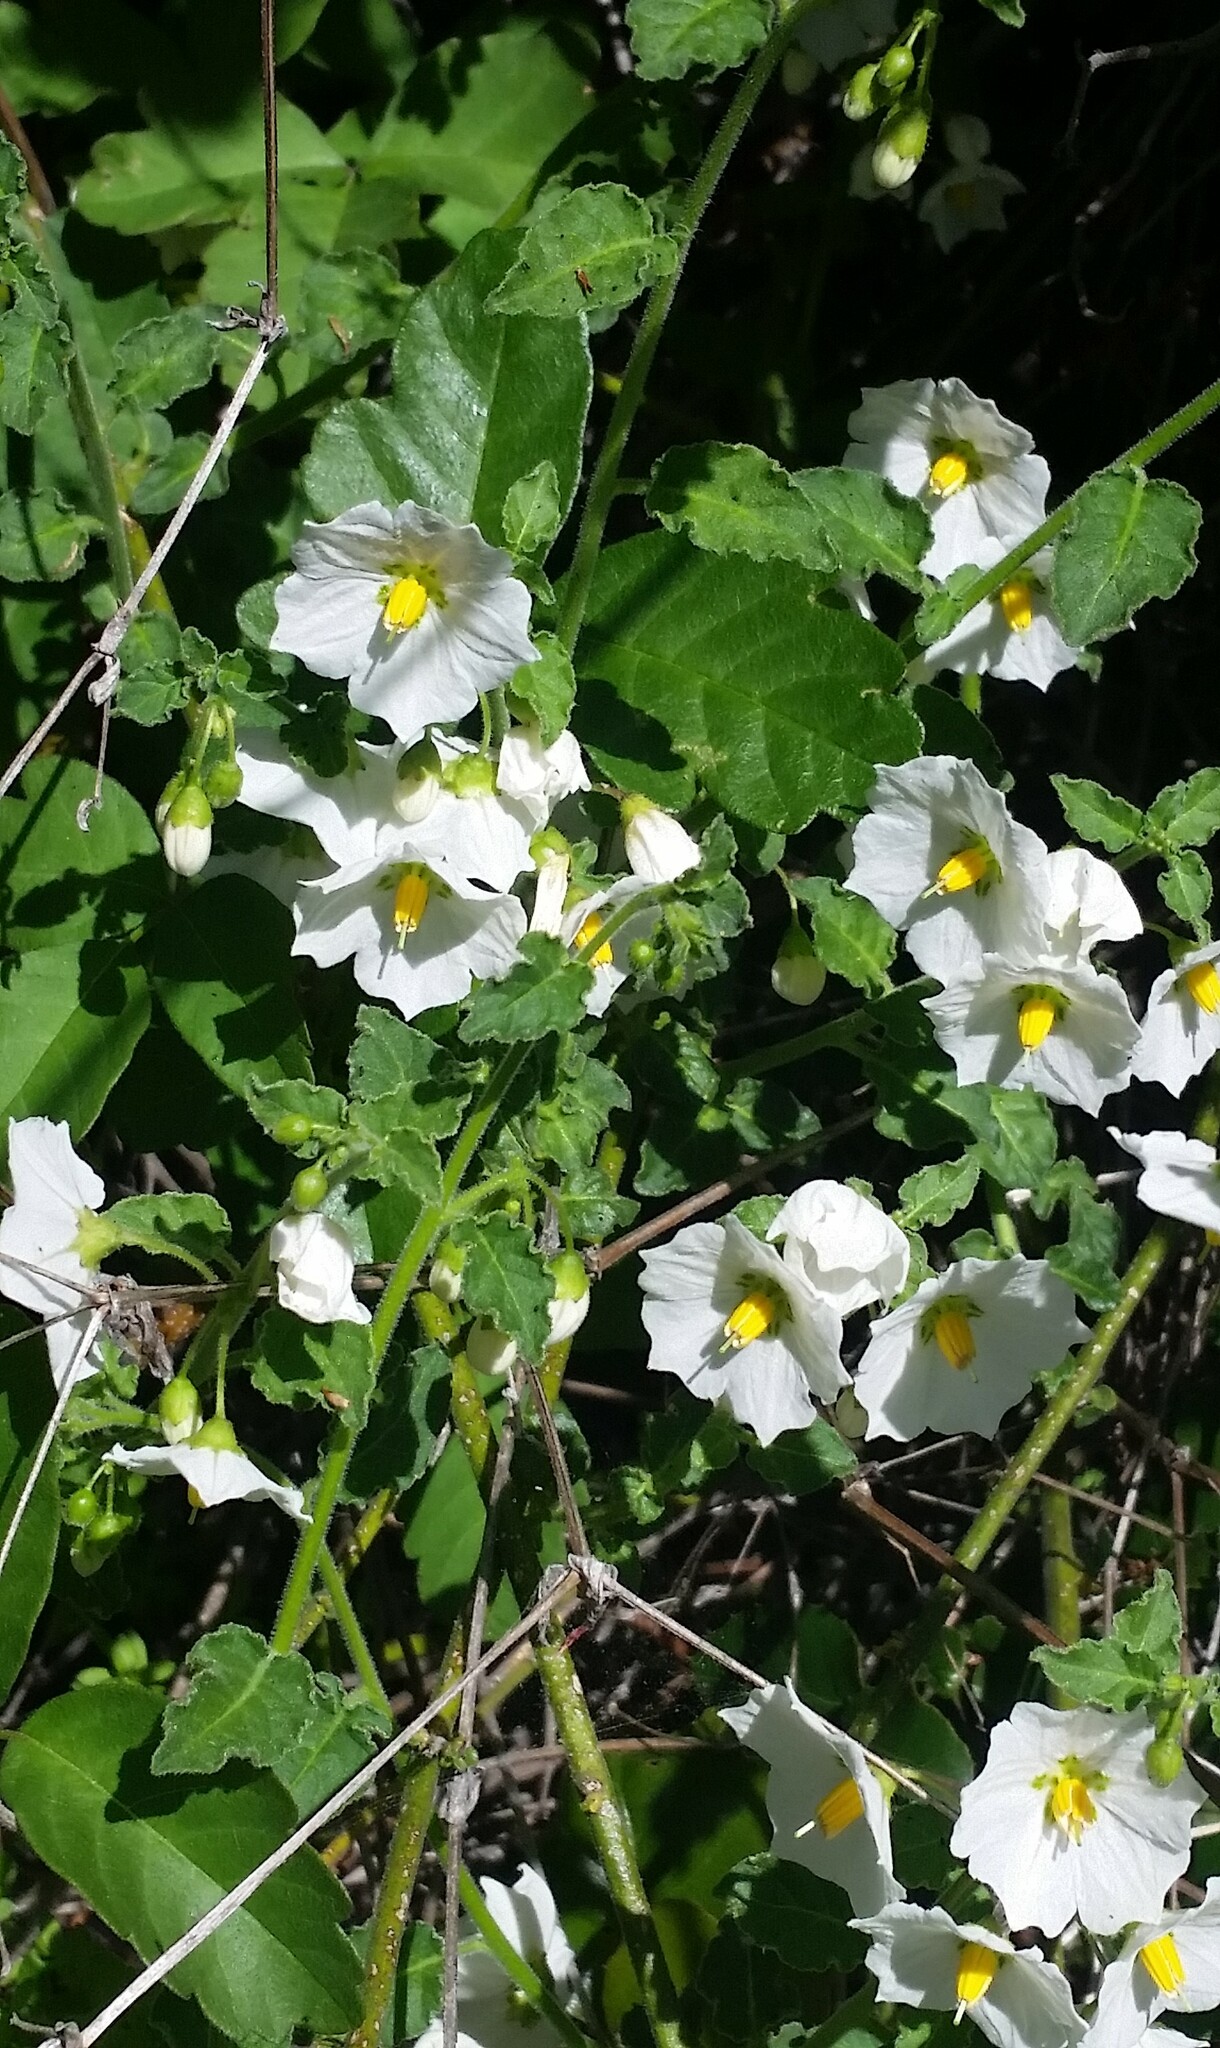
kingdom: Plantae
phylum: Tracheophyta
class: Magnoliopsida
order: Solanales
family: Solanaceae
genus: Solanum
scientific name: Solanum umbelliferum
